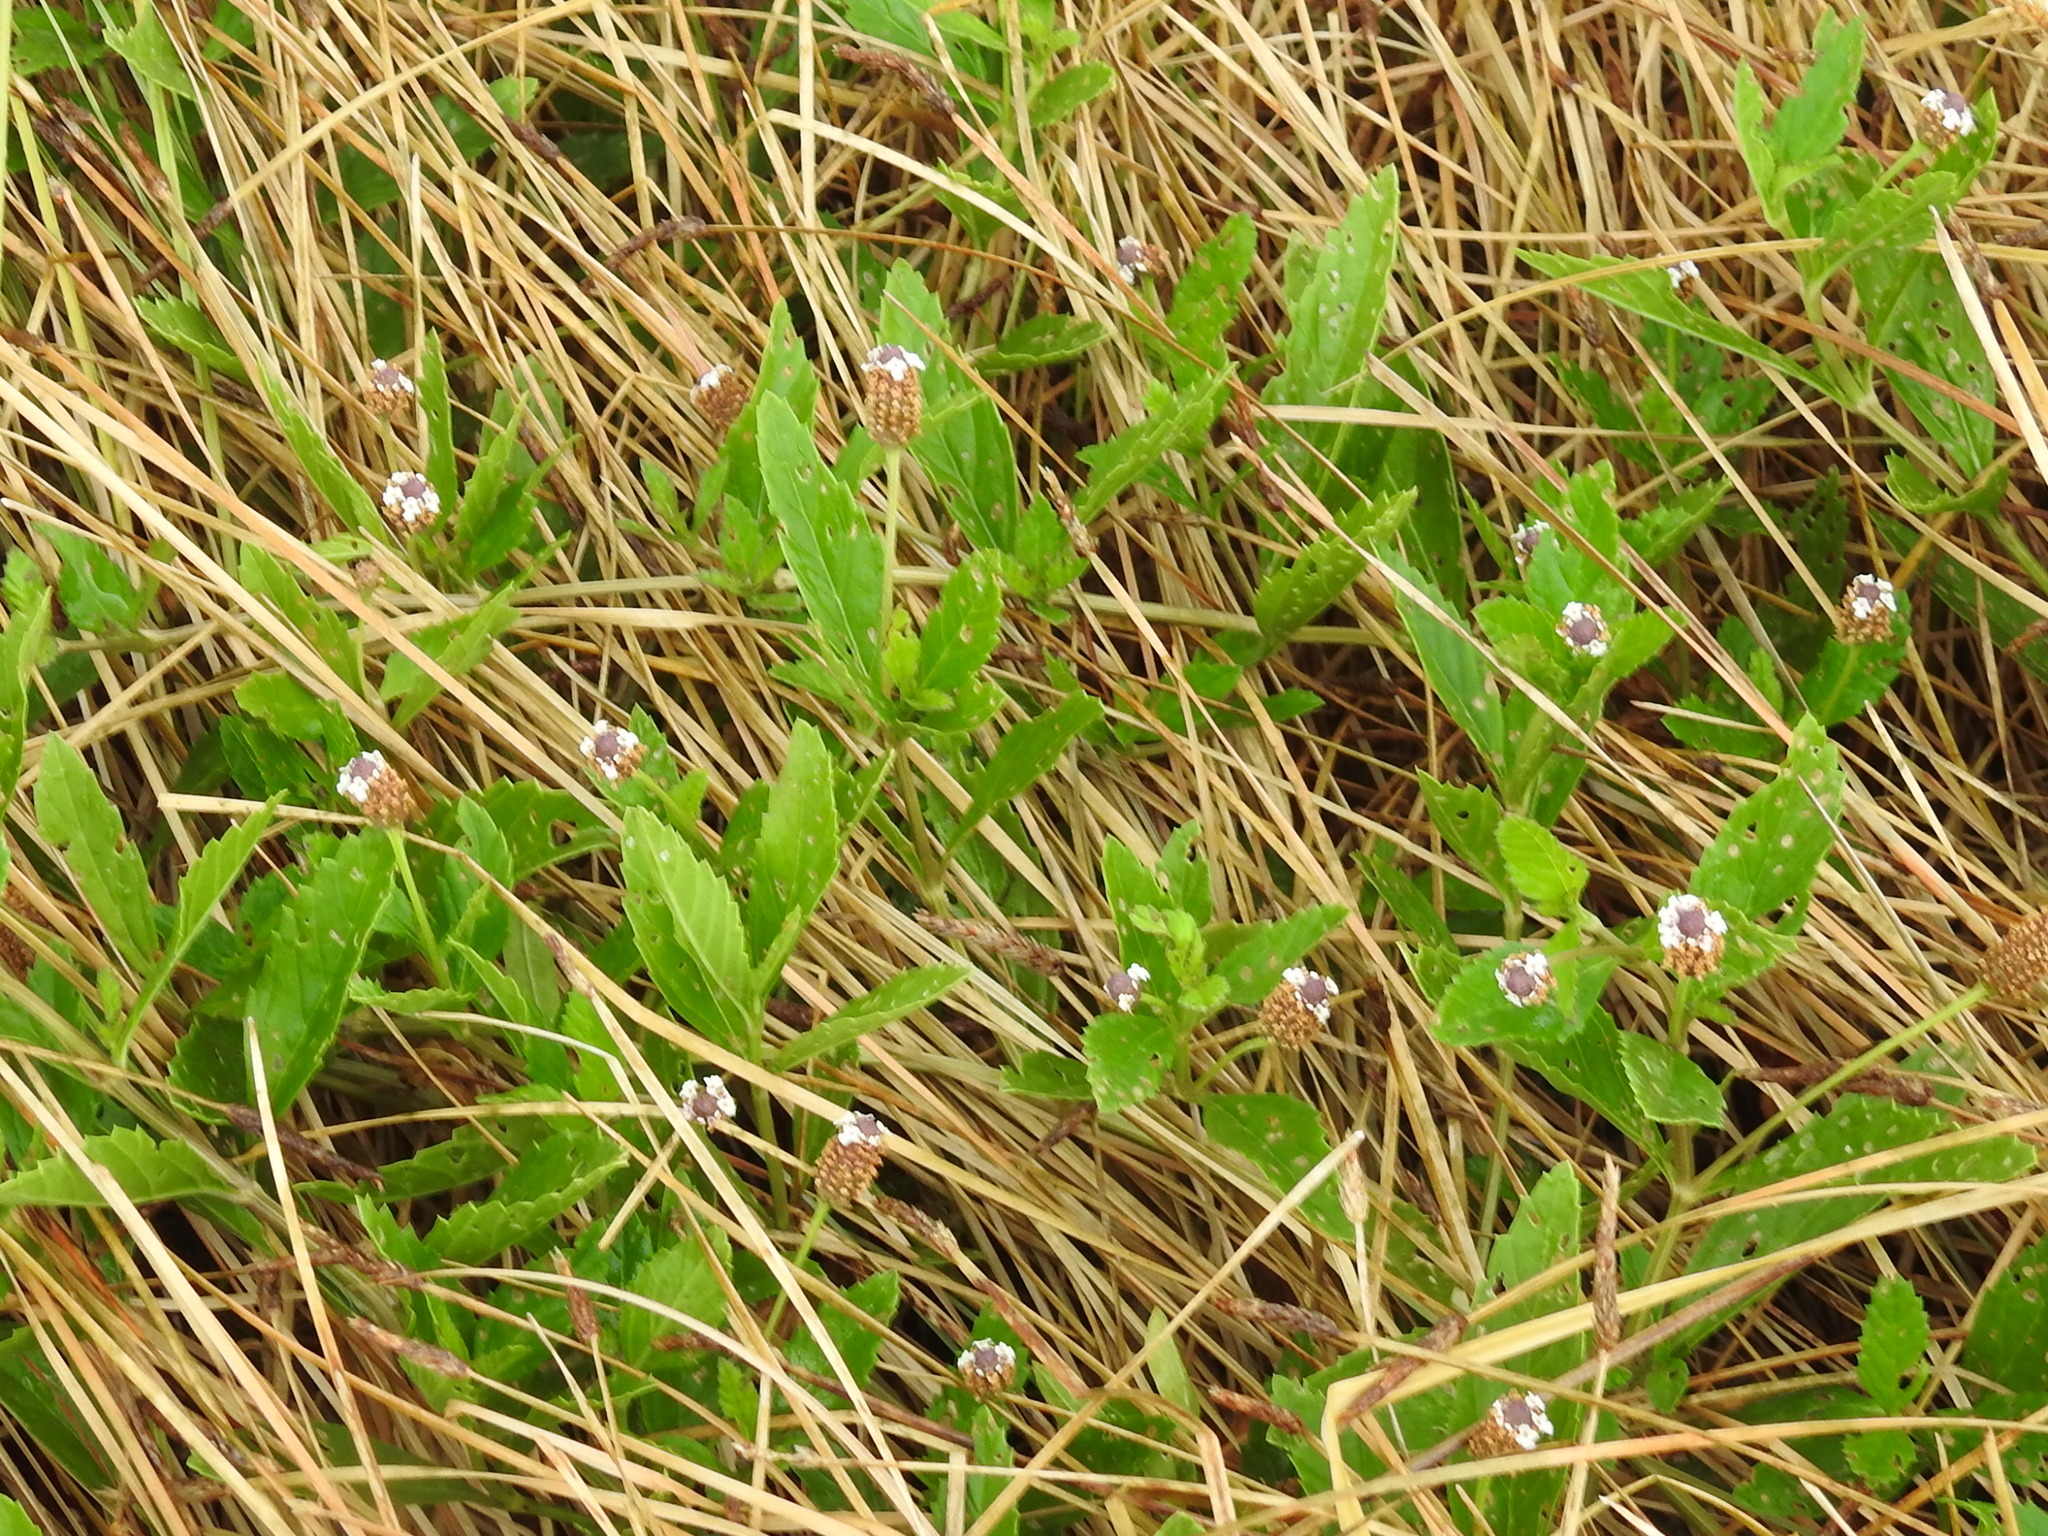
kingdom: Plantae
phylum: Tracheophyta
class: Magnoliopsida
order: Lamiales
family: Verbenaceae
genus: Phyla
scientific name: Phyla lanceolata
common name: Northern fogfruit
